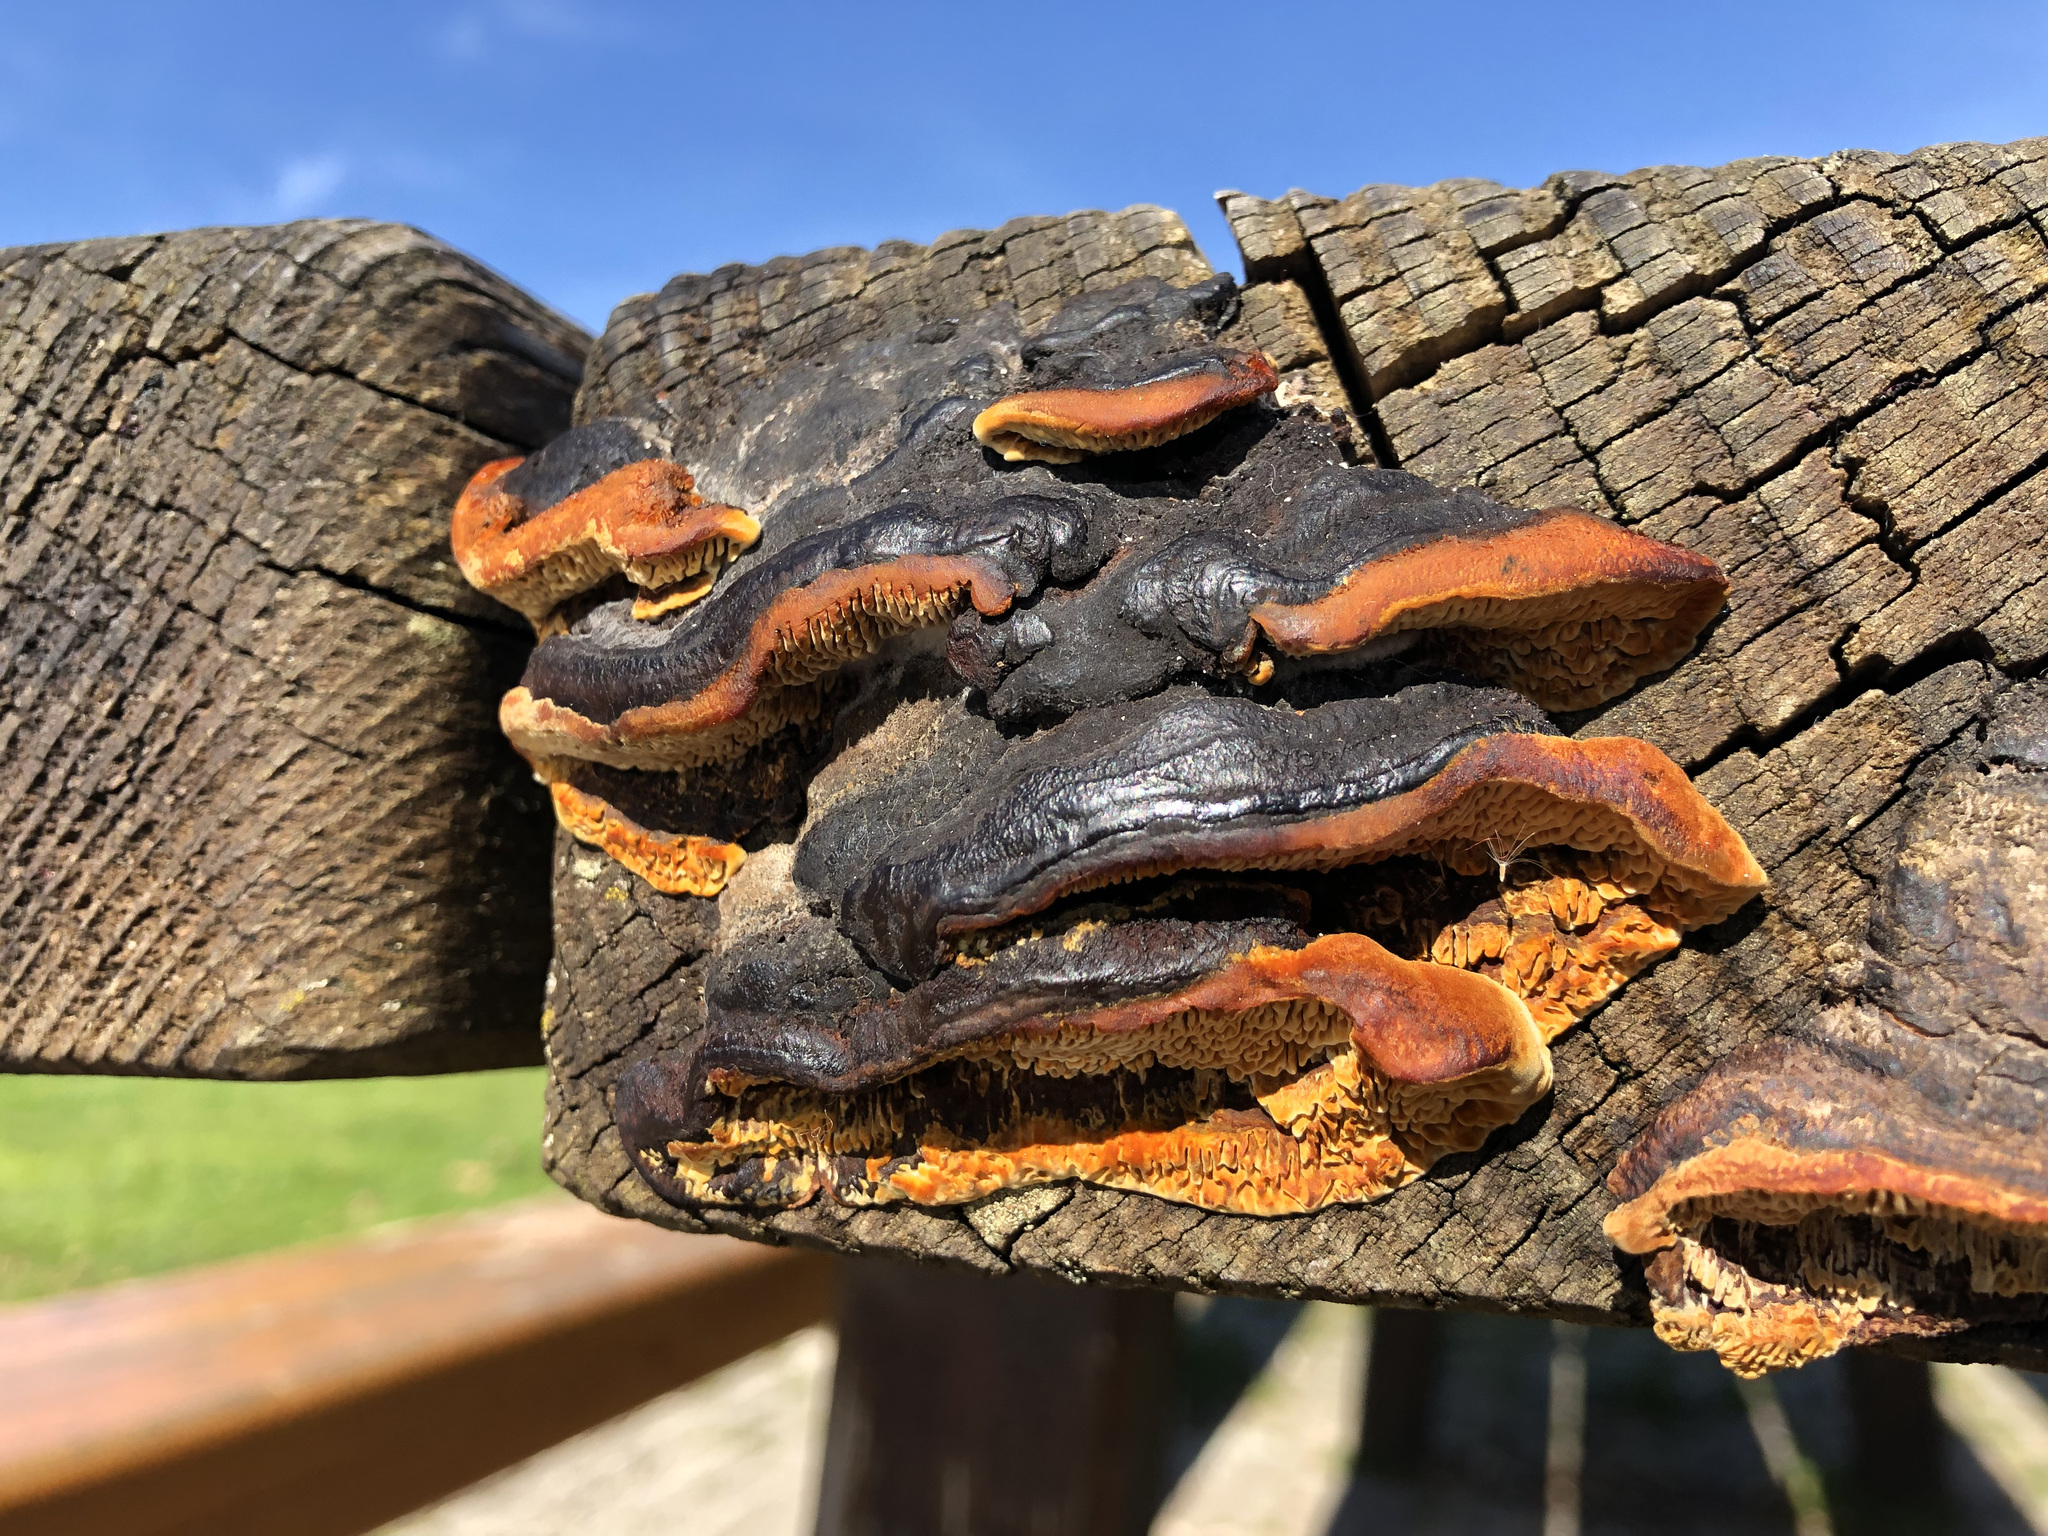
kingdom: Fungi
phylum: Basidiomycota
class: Agaricomycetes
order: Gloeophyllales
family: Gloeophyllaceae
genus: Gloeophyllum
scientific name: Gloeophyllum sepiarium
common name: Conifer mazegill
